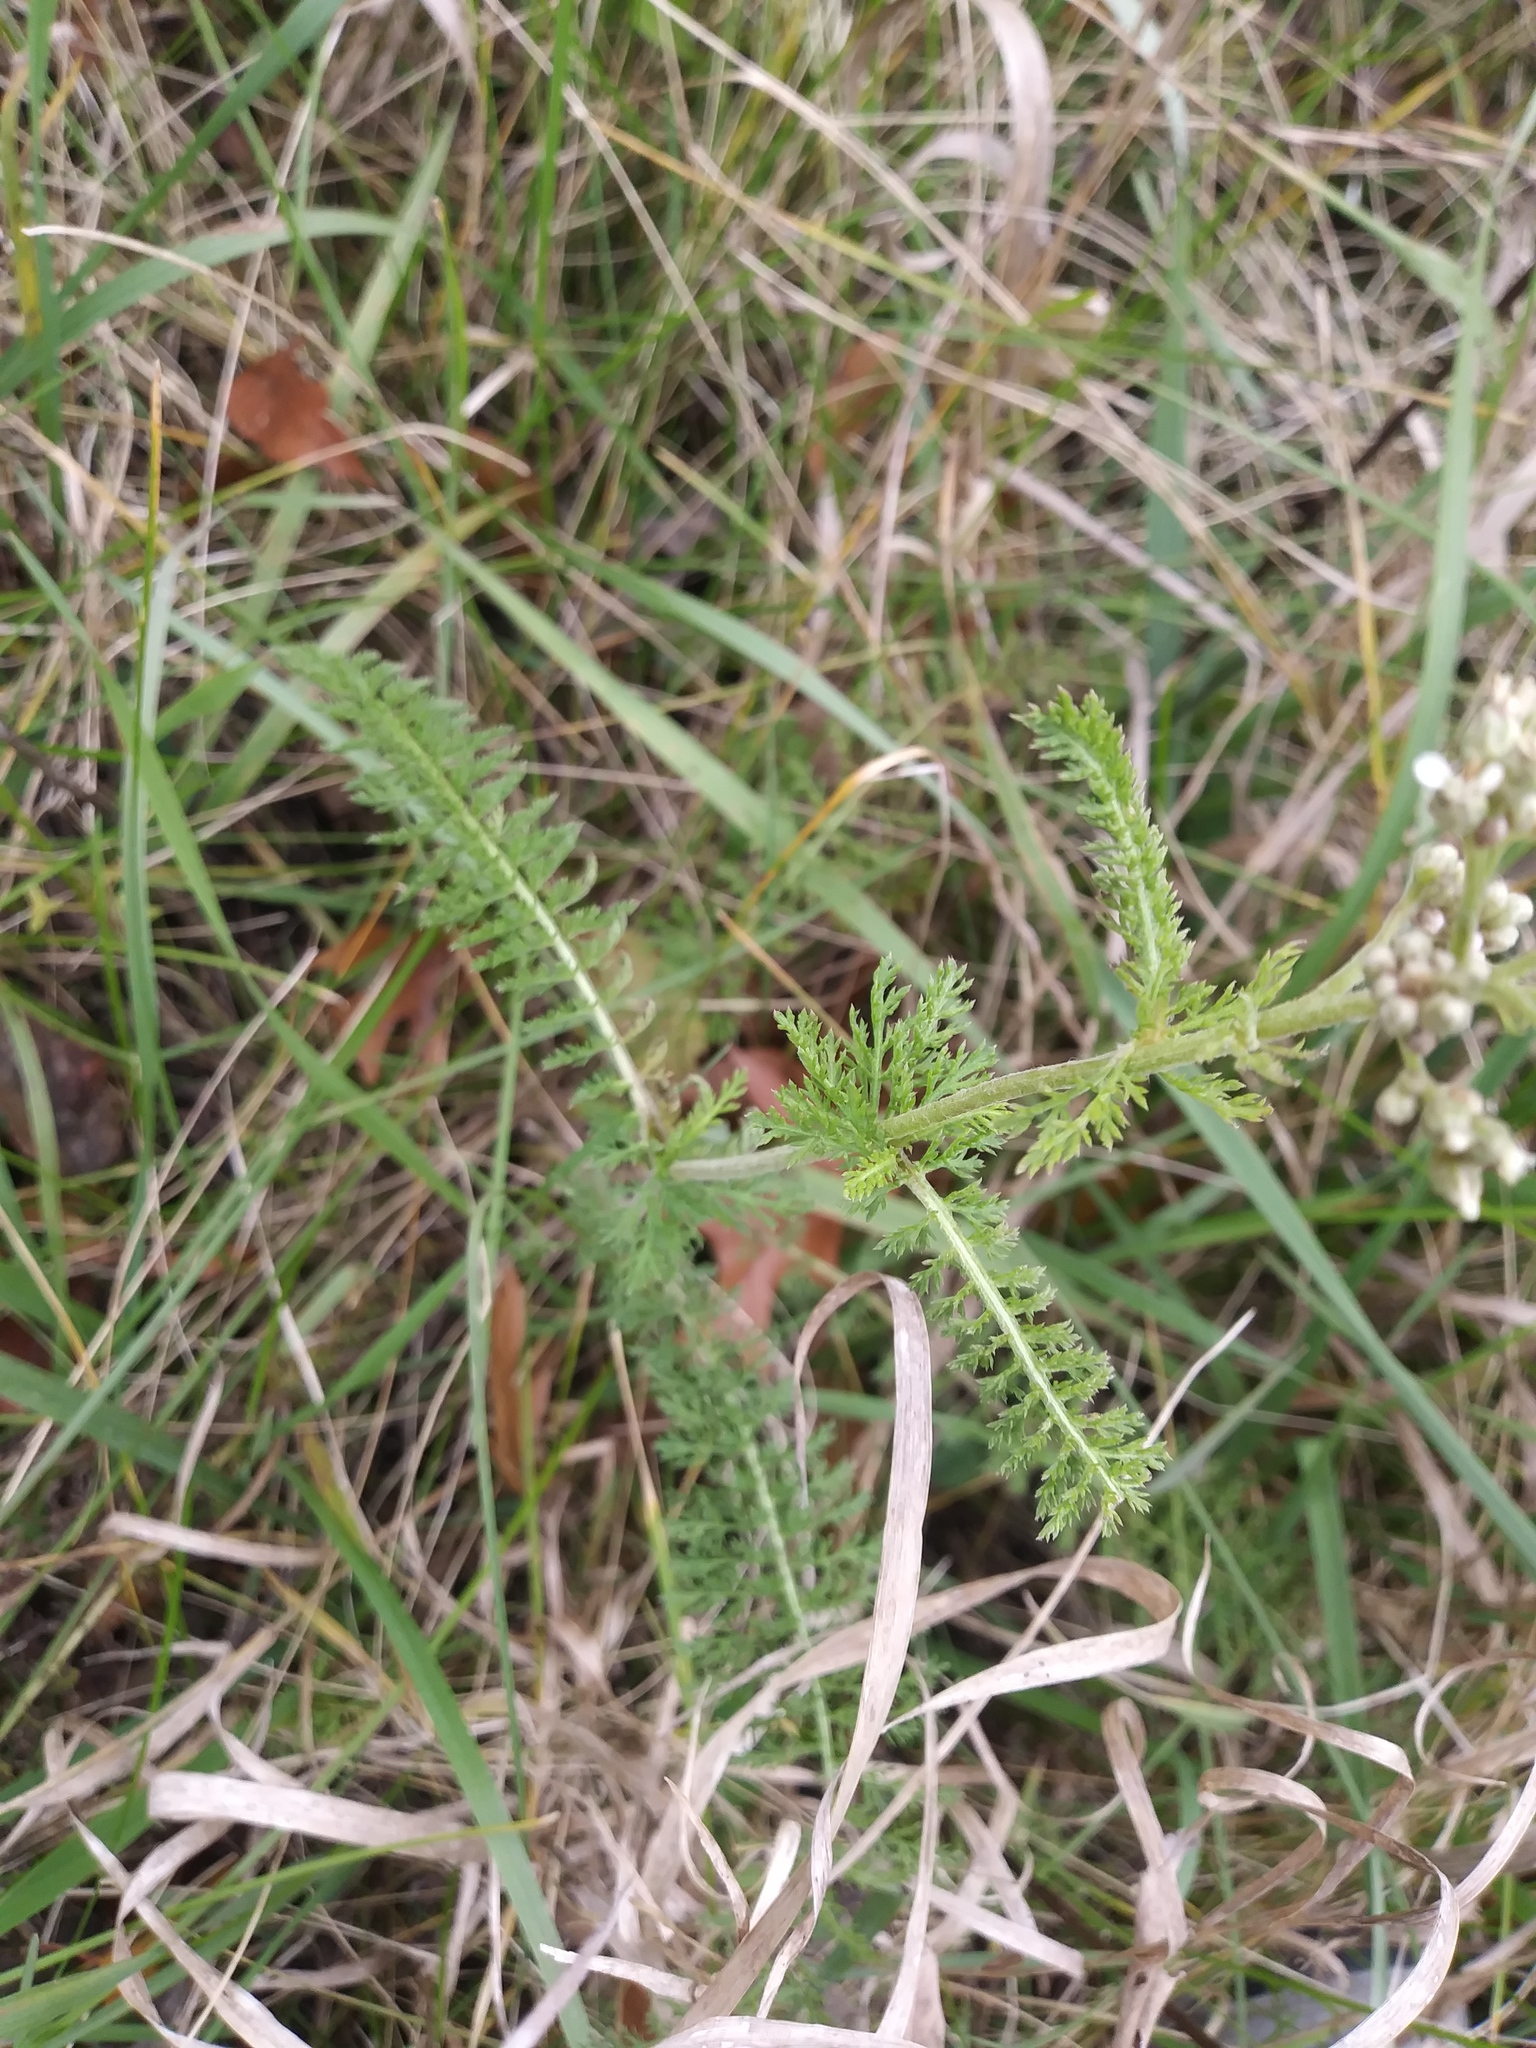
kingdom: Plantae
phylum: Tracheophyta
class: Magnoliopsida
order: Asterales
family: Asteraceae
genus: Achillea
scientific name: Achillea millefolium
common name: Yarrow
